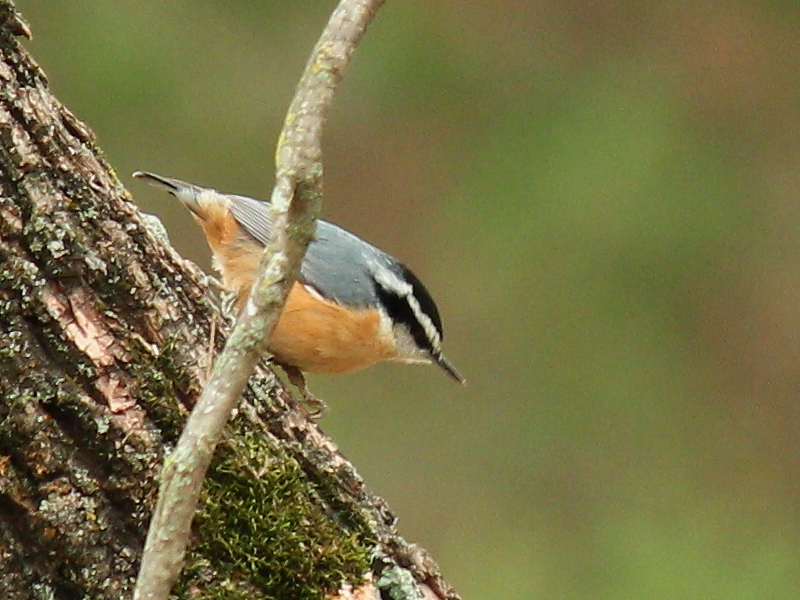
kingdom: Animalia
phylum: Chordata
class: Aves
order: Passeriformes
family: Sittidae
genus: Sitta
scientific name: Sitta canadensis
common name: Red-breasted nuthatch
